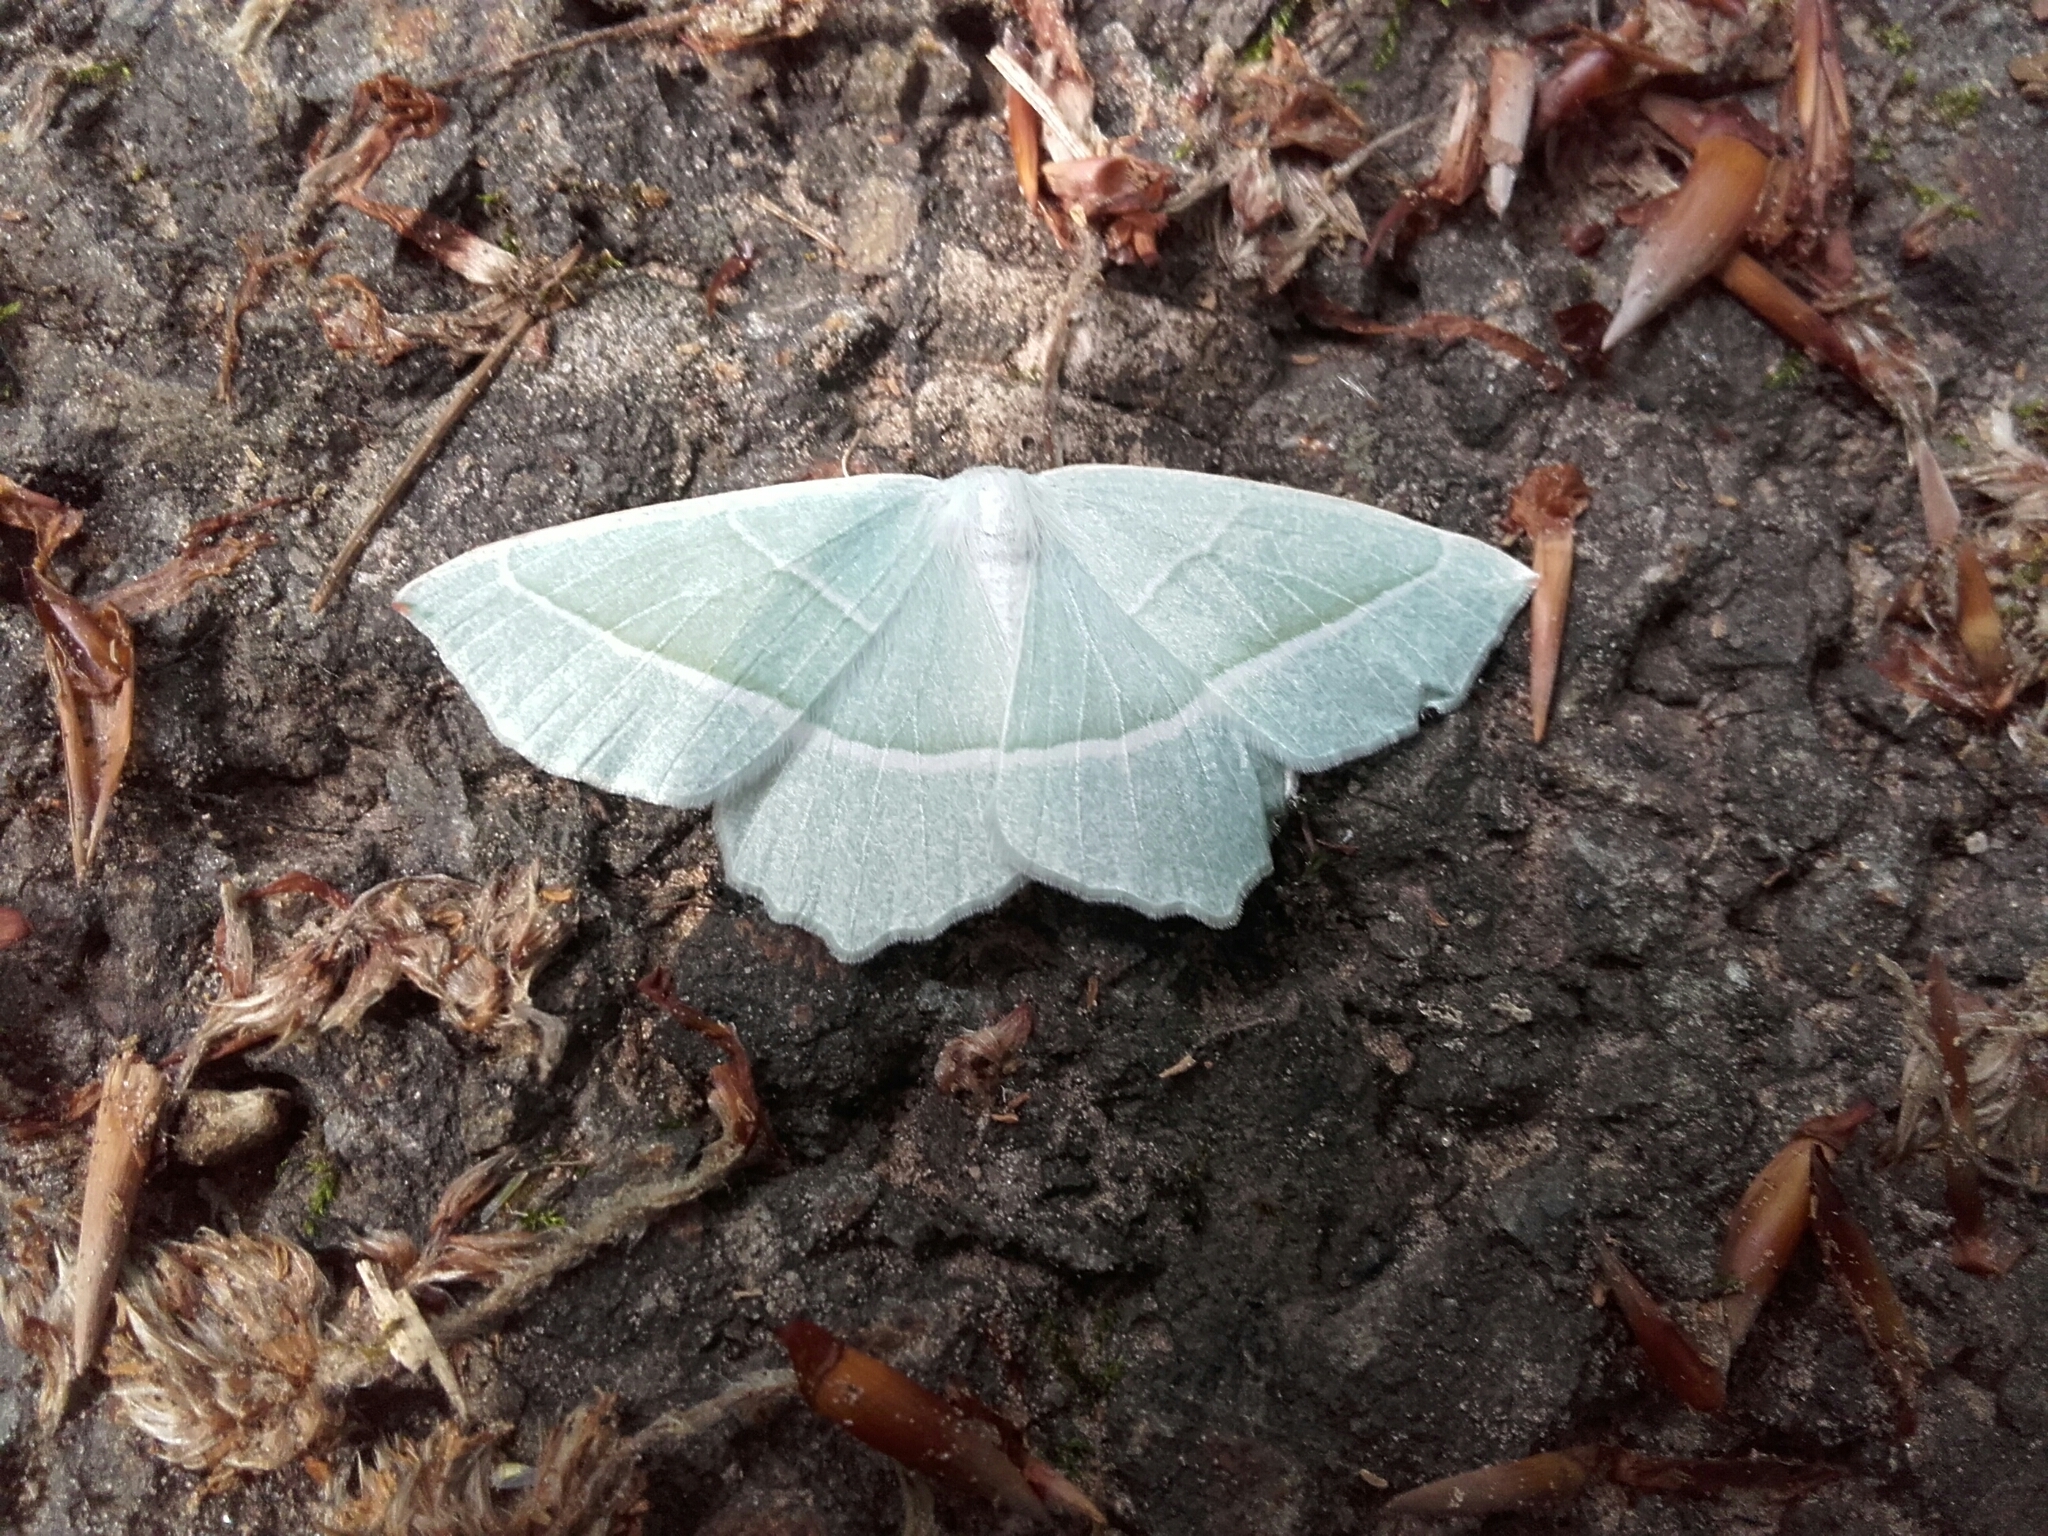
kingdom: Animalia
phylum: Arthropoda
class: Insecta
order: Lepidoptera
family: Geometridae
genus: Campaea
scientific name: Campaea margaritaria
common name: Light emerald
